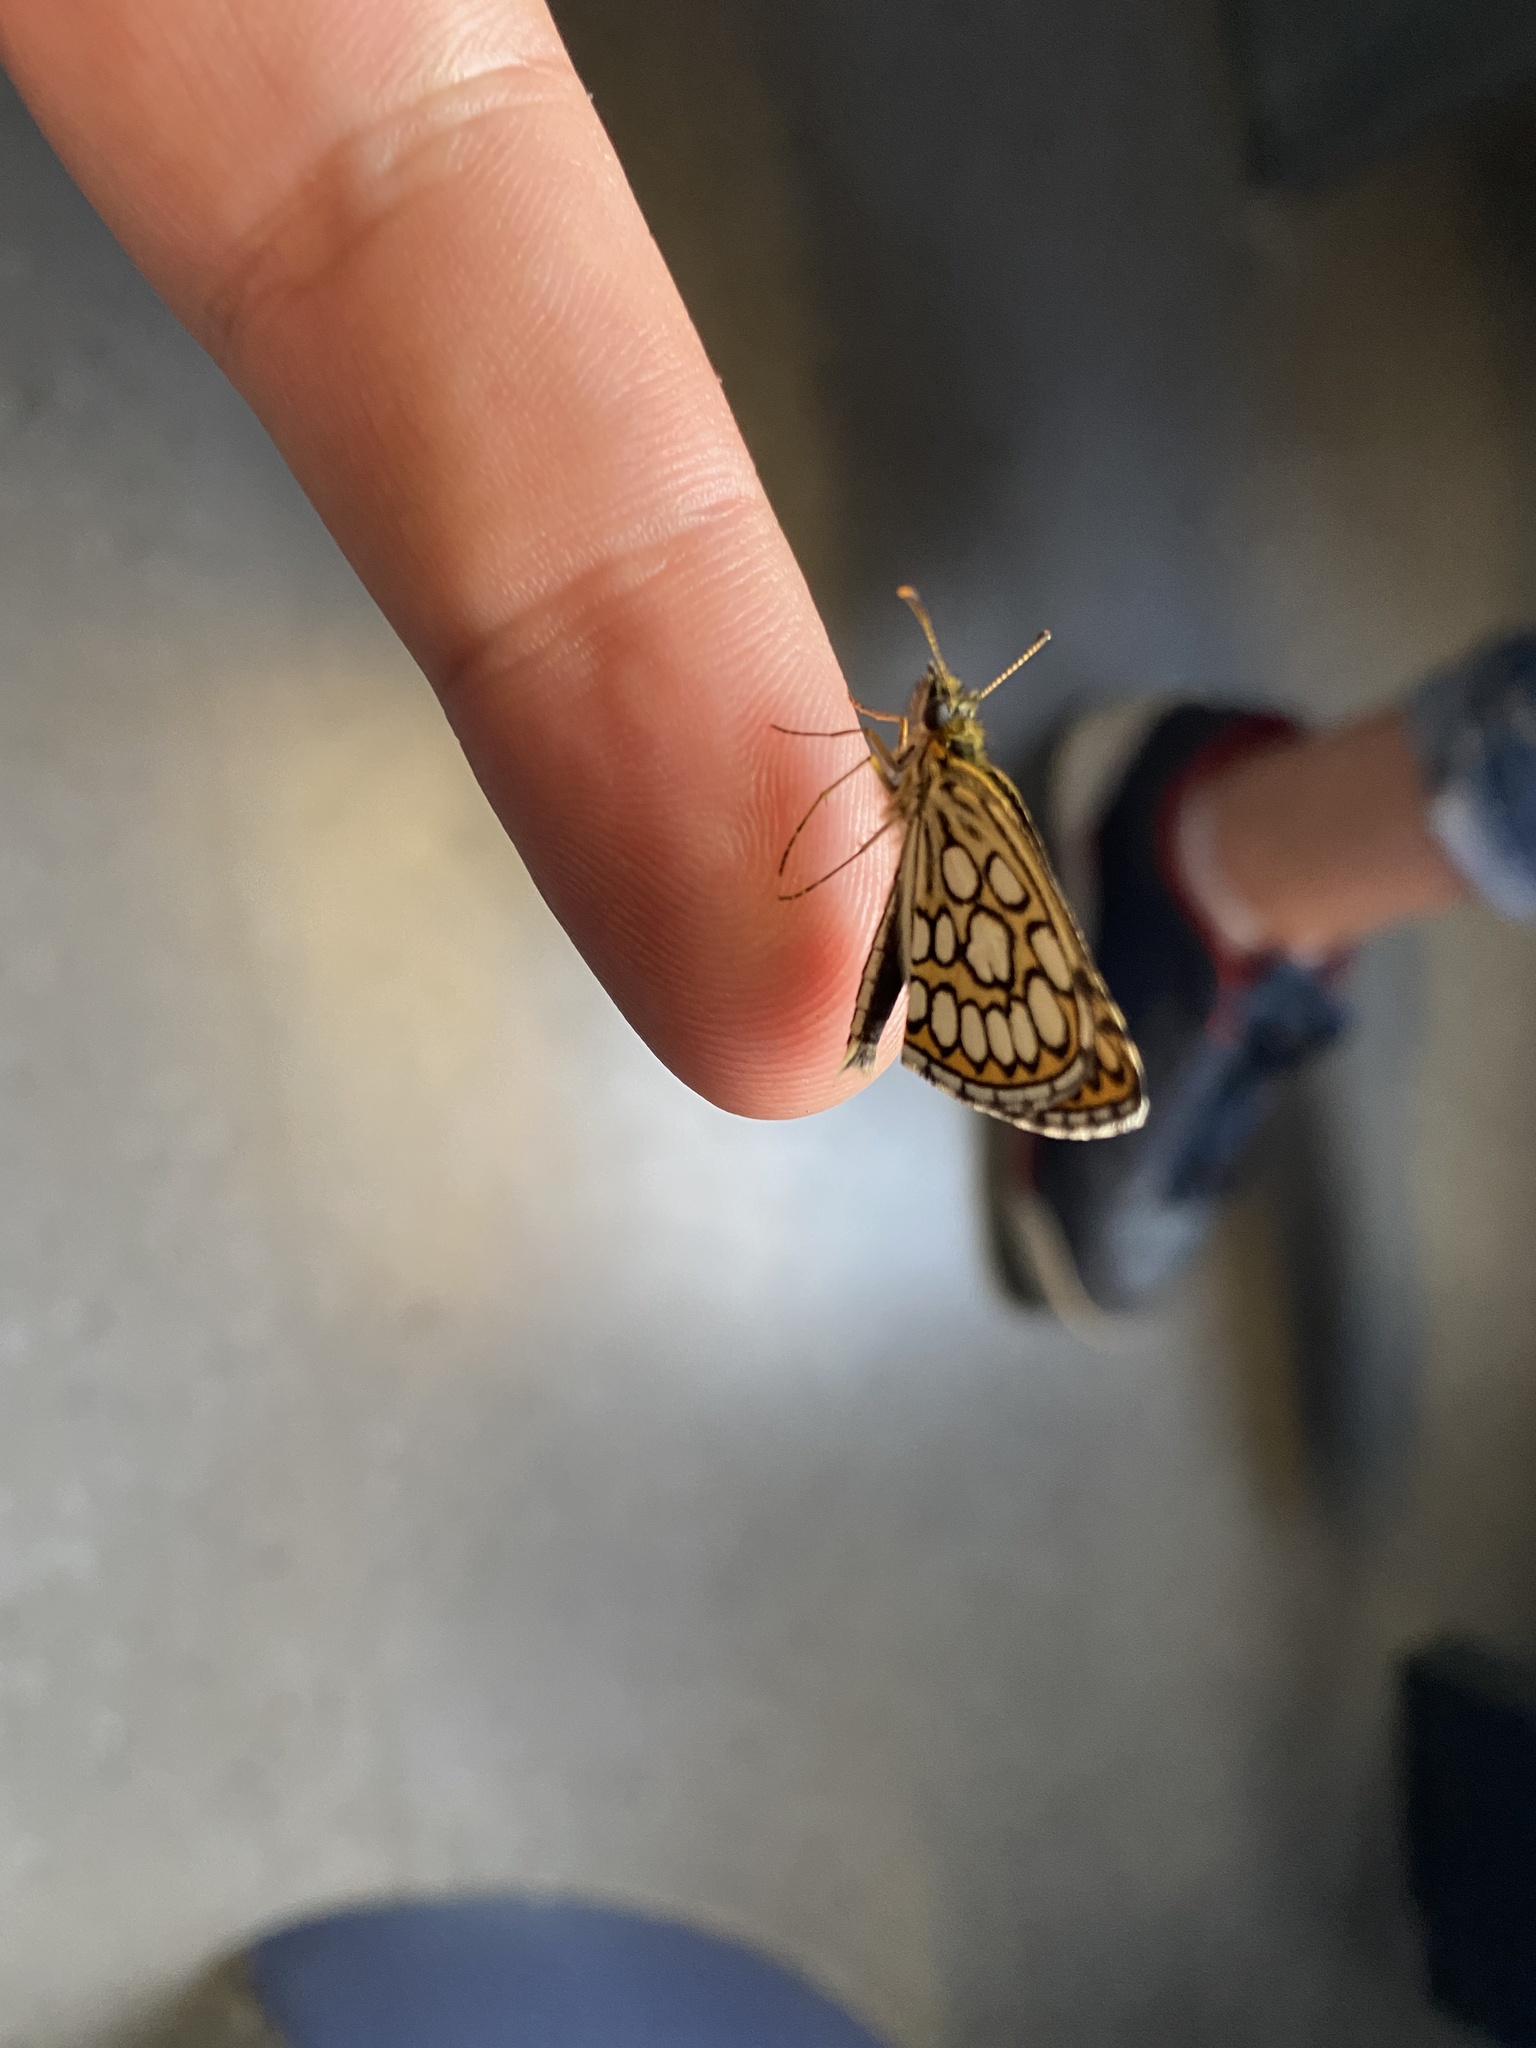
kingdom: Animalia
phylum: Arthropoda
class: Insecta
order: Lepidoptera
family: Hesperiidae
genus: Heteropterus
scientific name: Heteropterus morpheus
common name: Large chequered skipper
